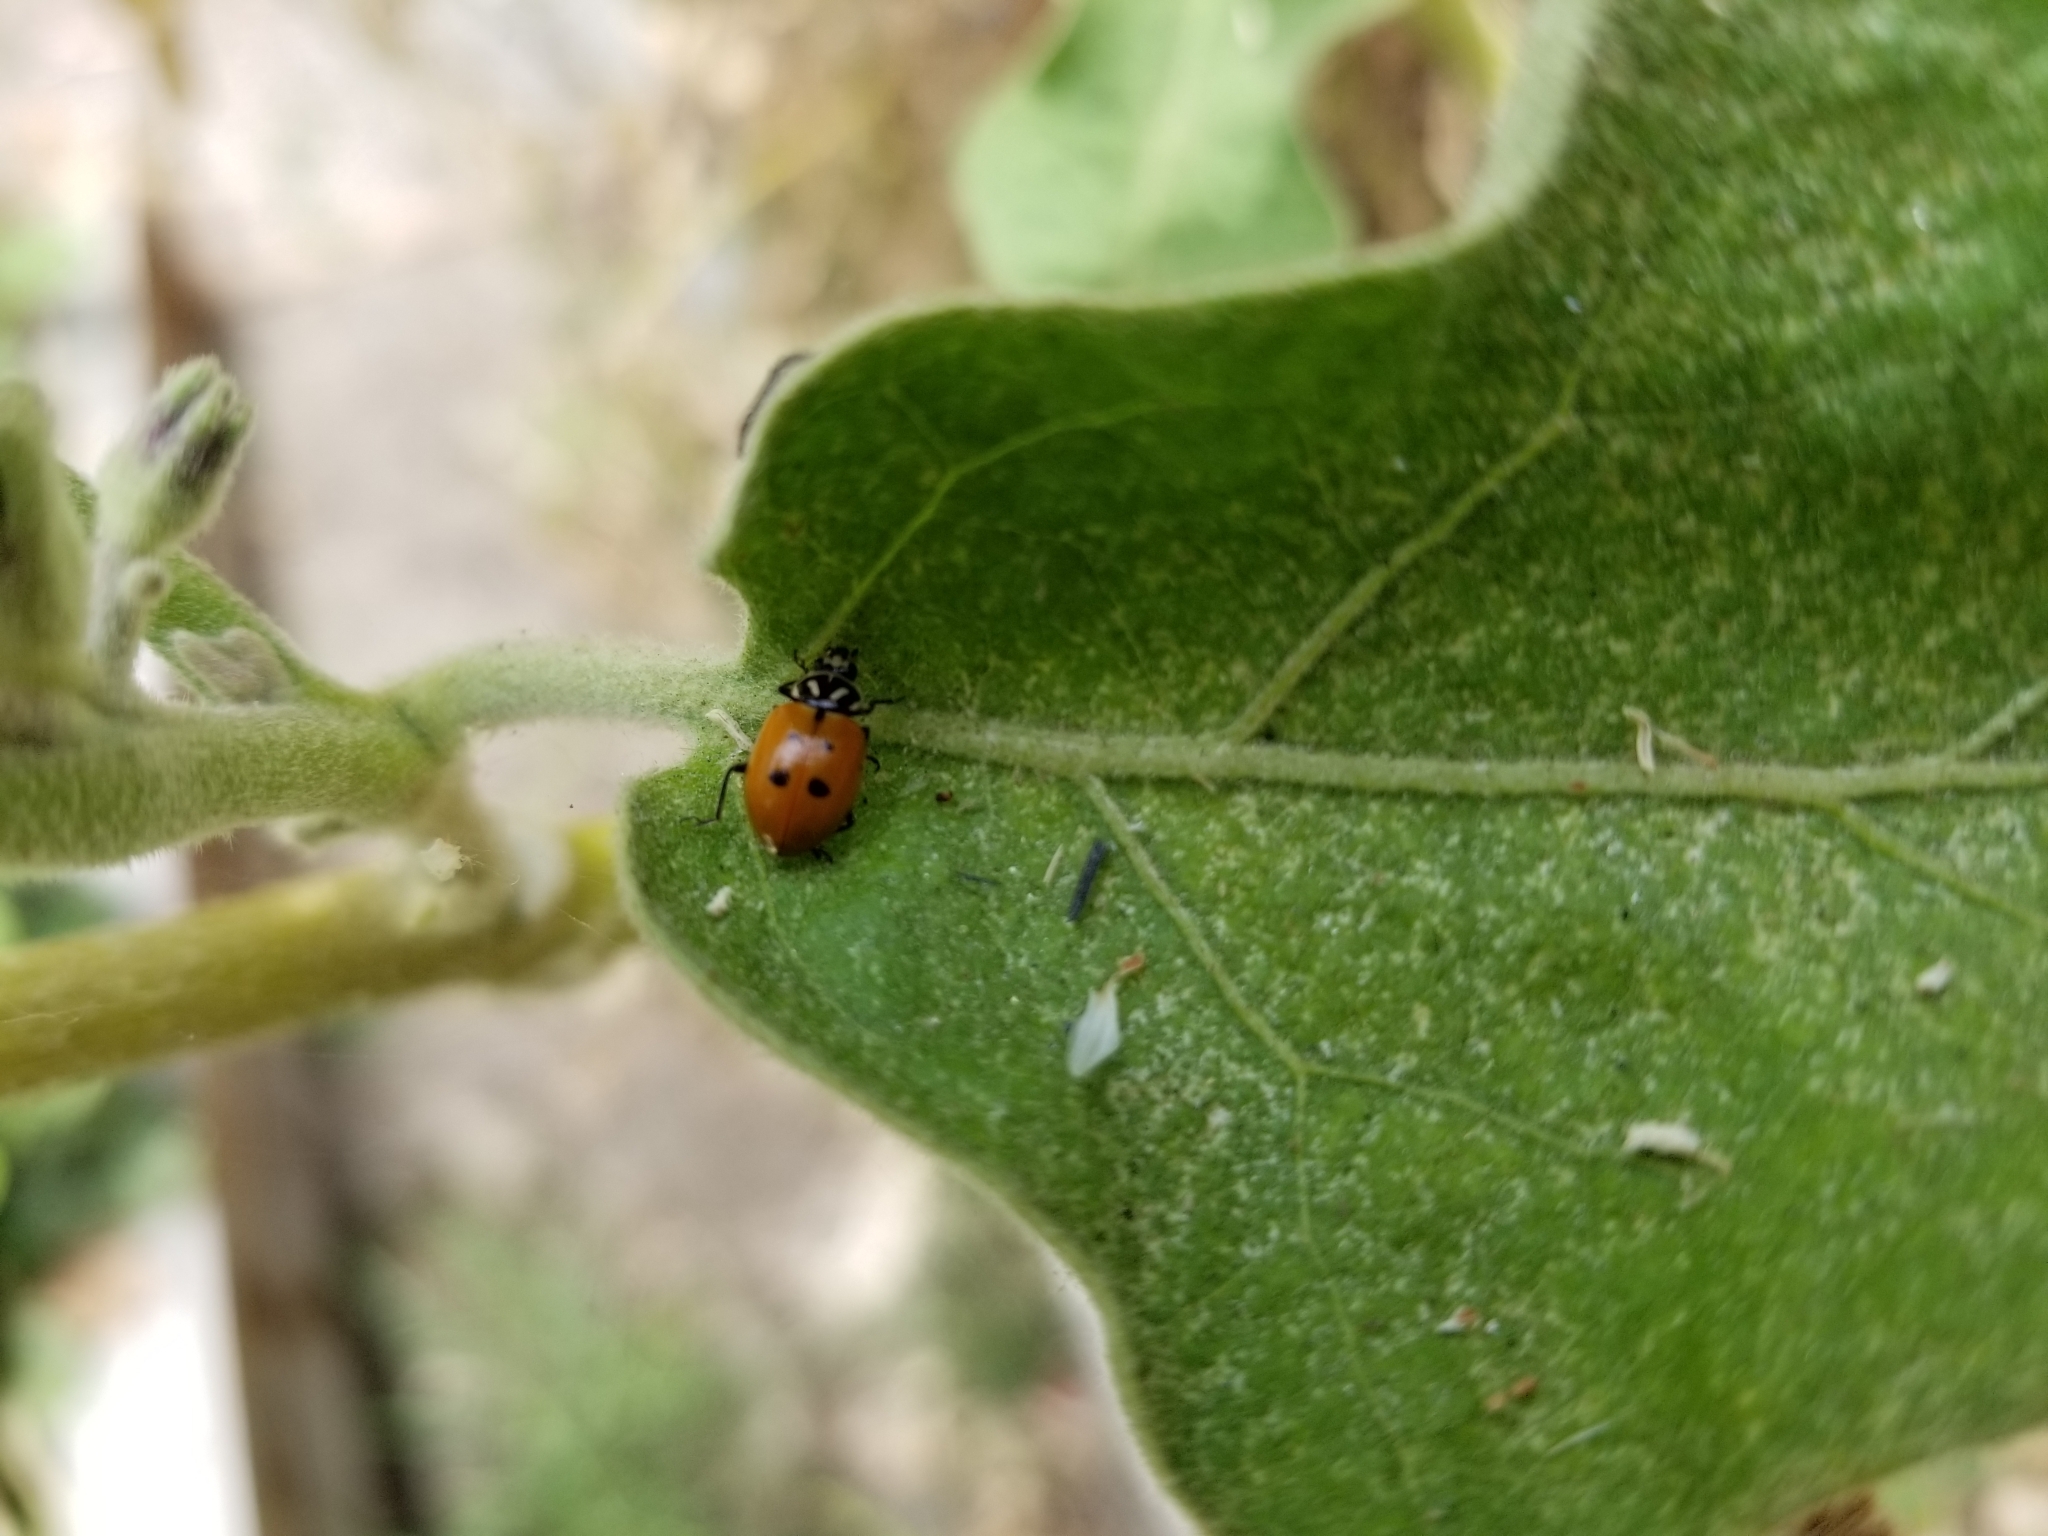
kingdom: Animalia
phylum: Arthropoda
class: Insecta
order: Coleoptera
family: Coccinellidae
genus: Hippodamia
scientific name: Hippodamia convergens
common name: Convergent lady beetle
